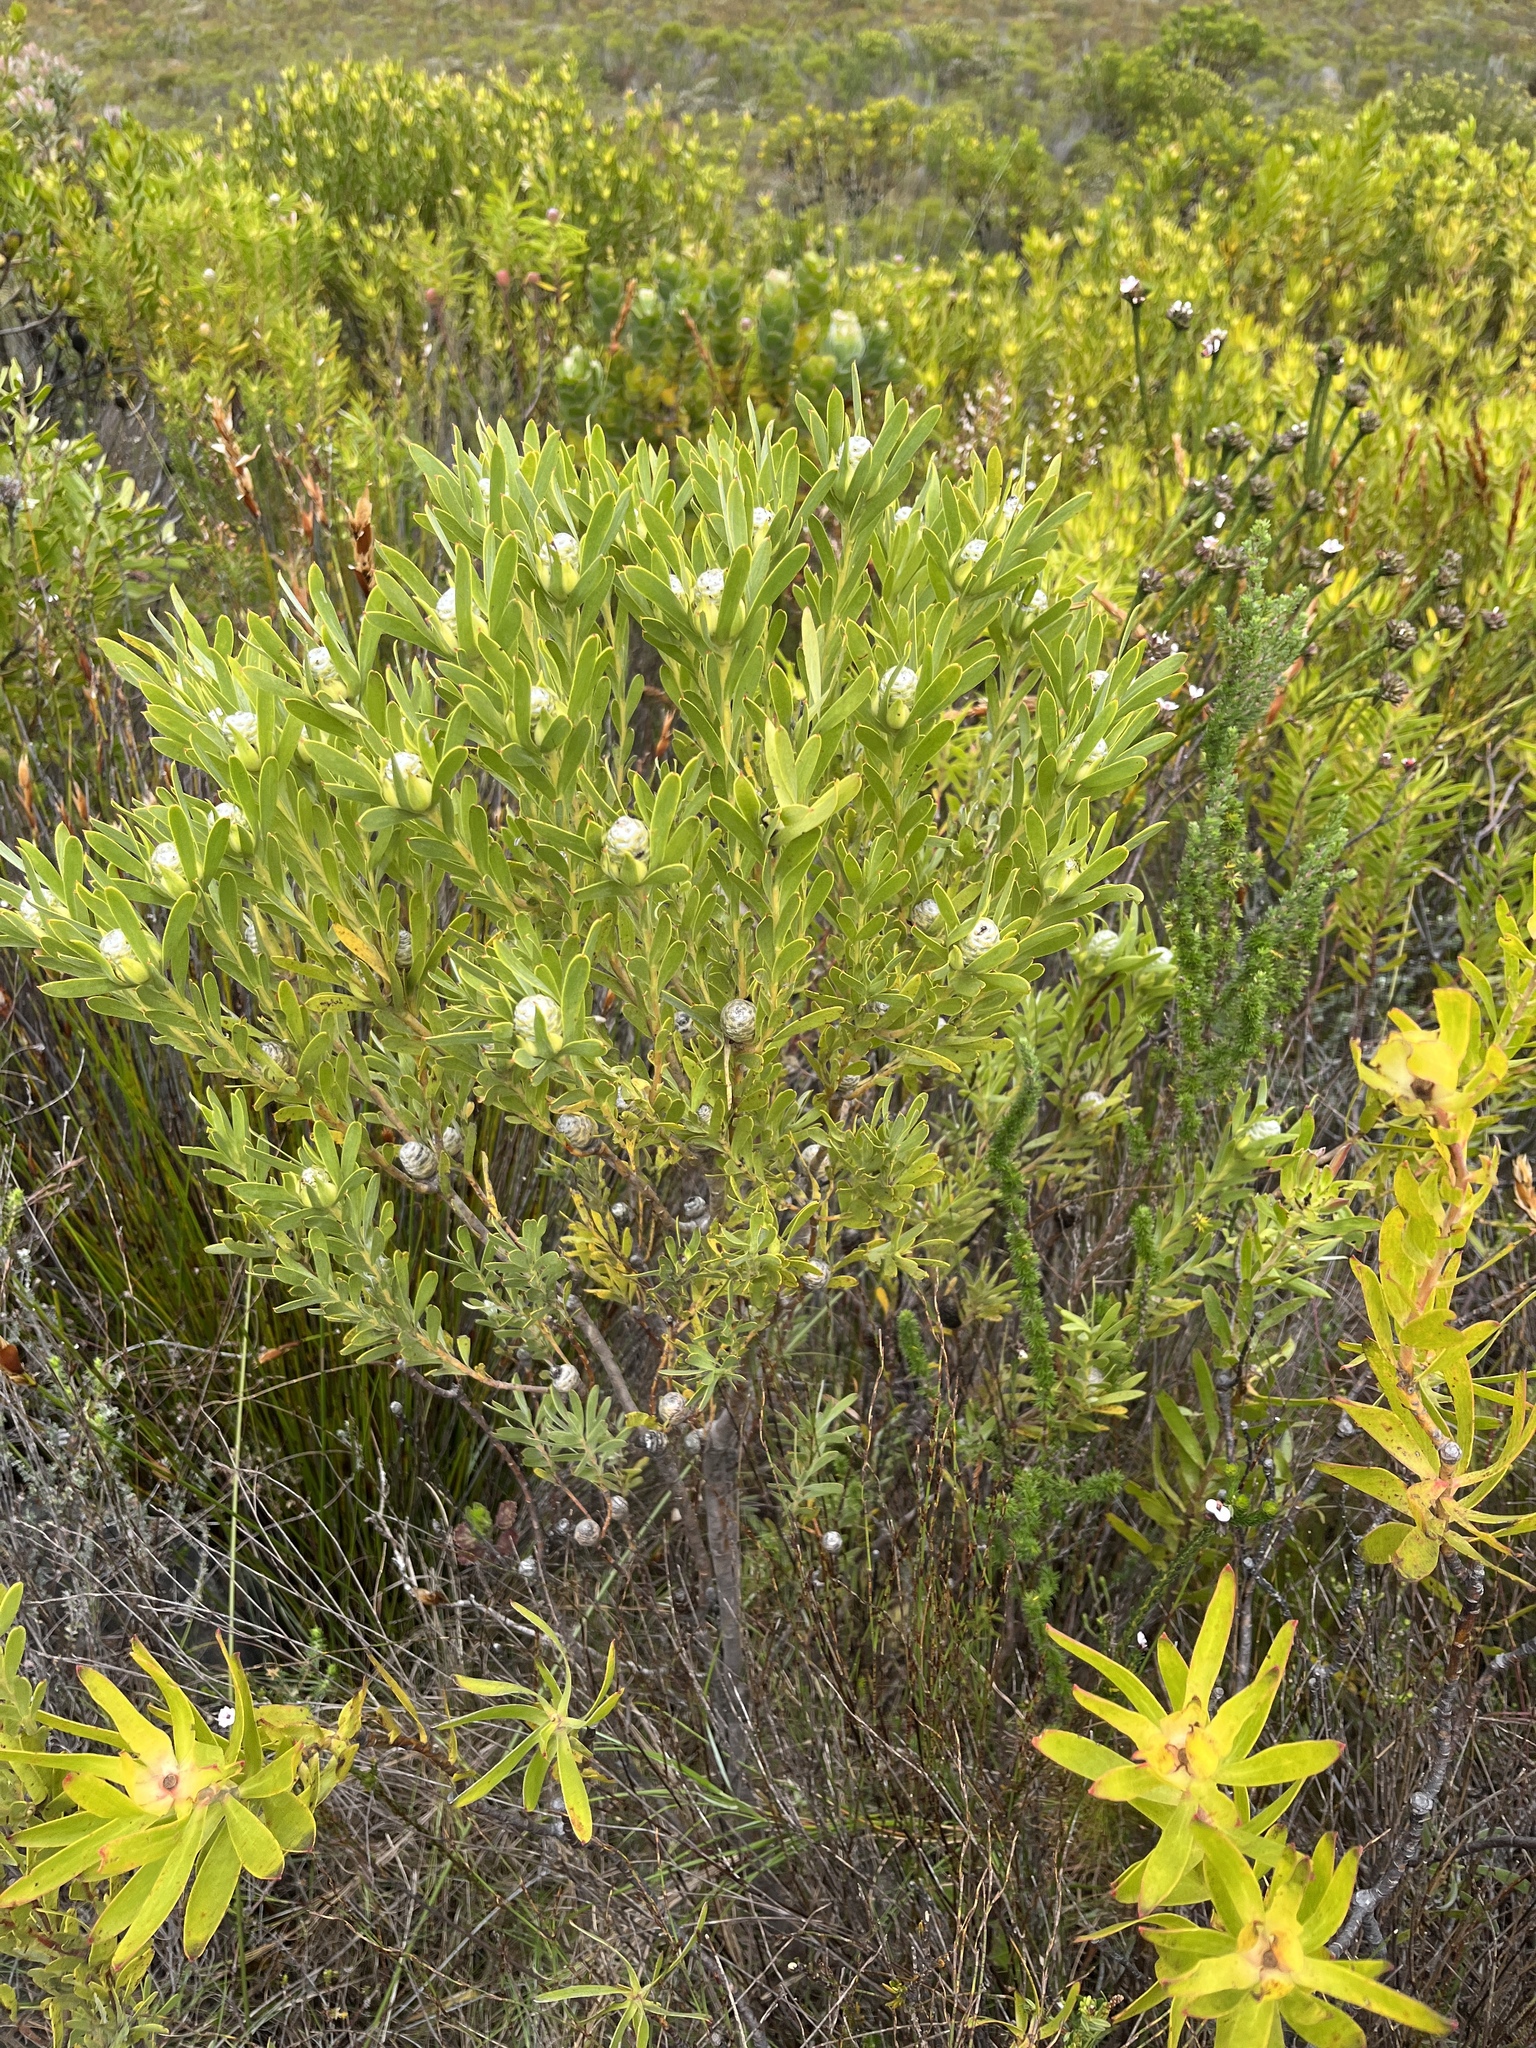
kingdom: Plantae
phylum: Tracheophyta
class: Magnoliopsida
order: Proteales
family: Proteaceae
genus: Leucadendron
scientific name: Leucadendron meridianum
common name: Limestone conebush
